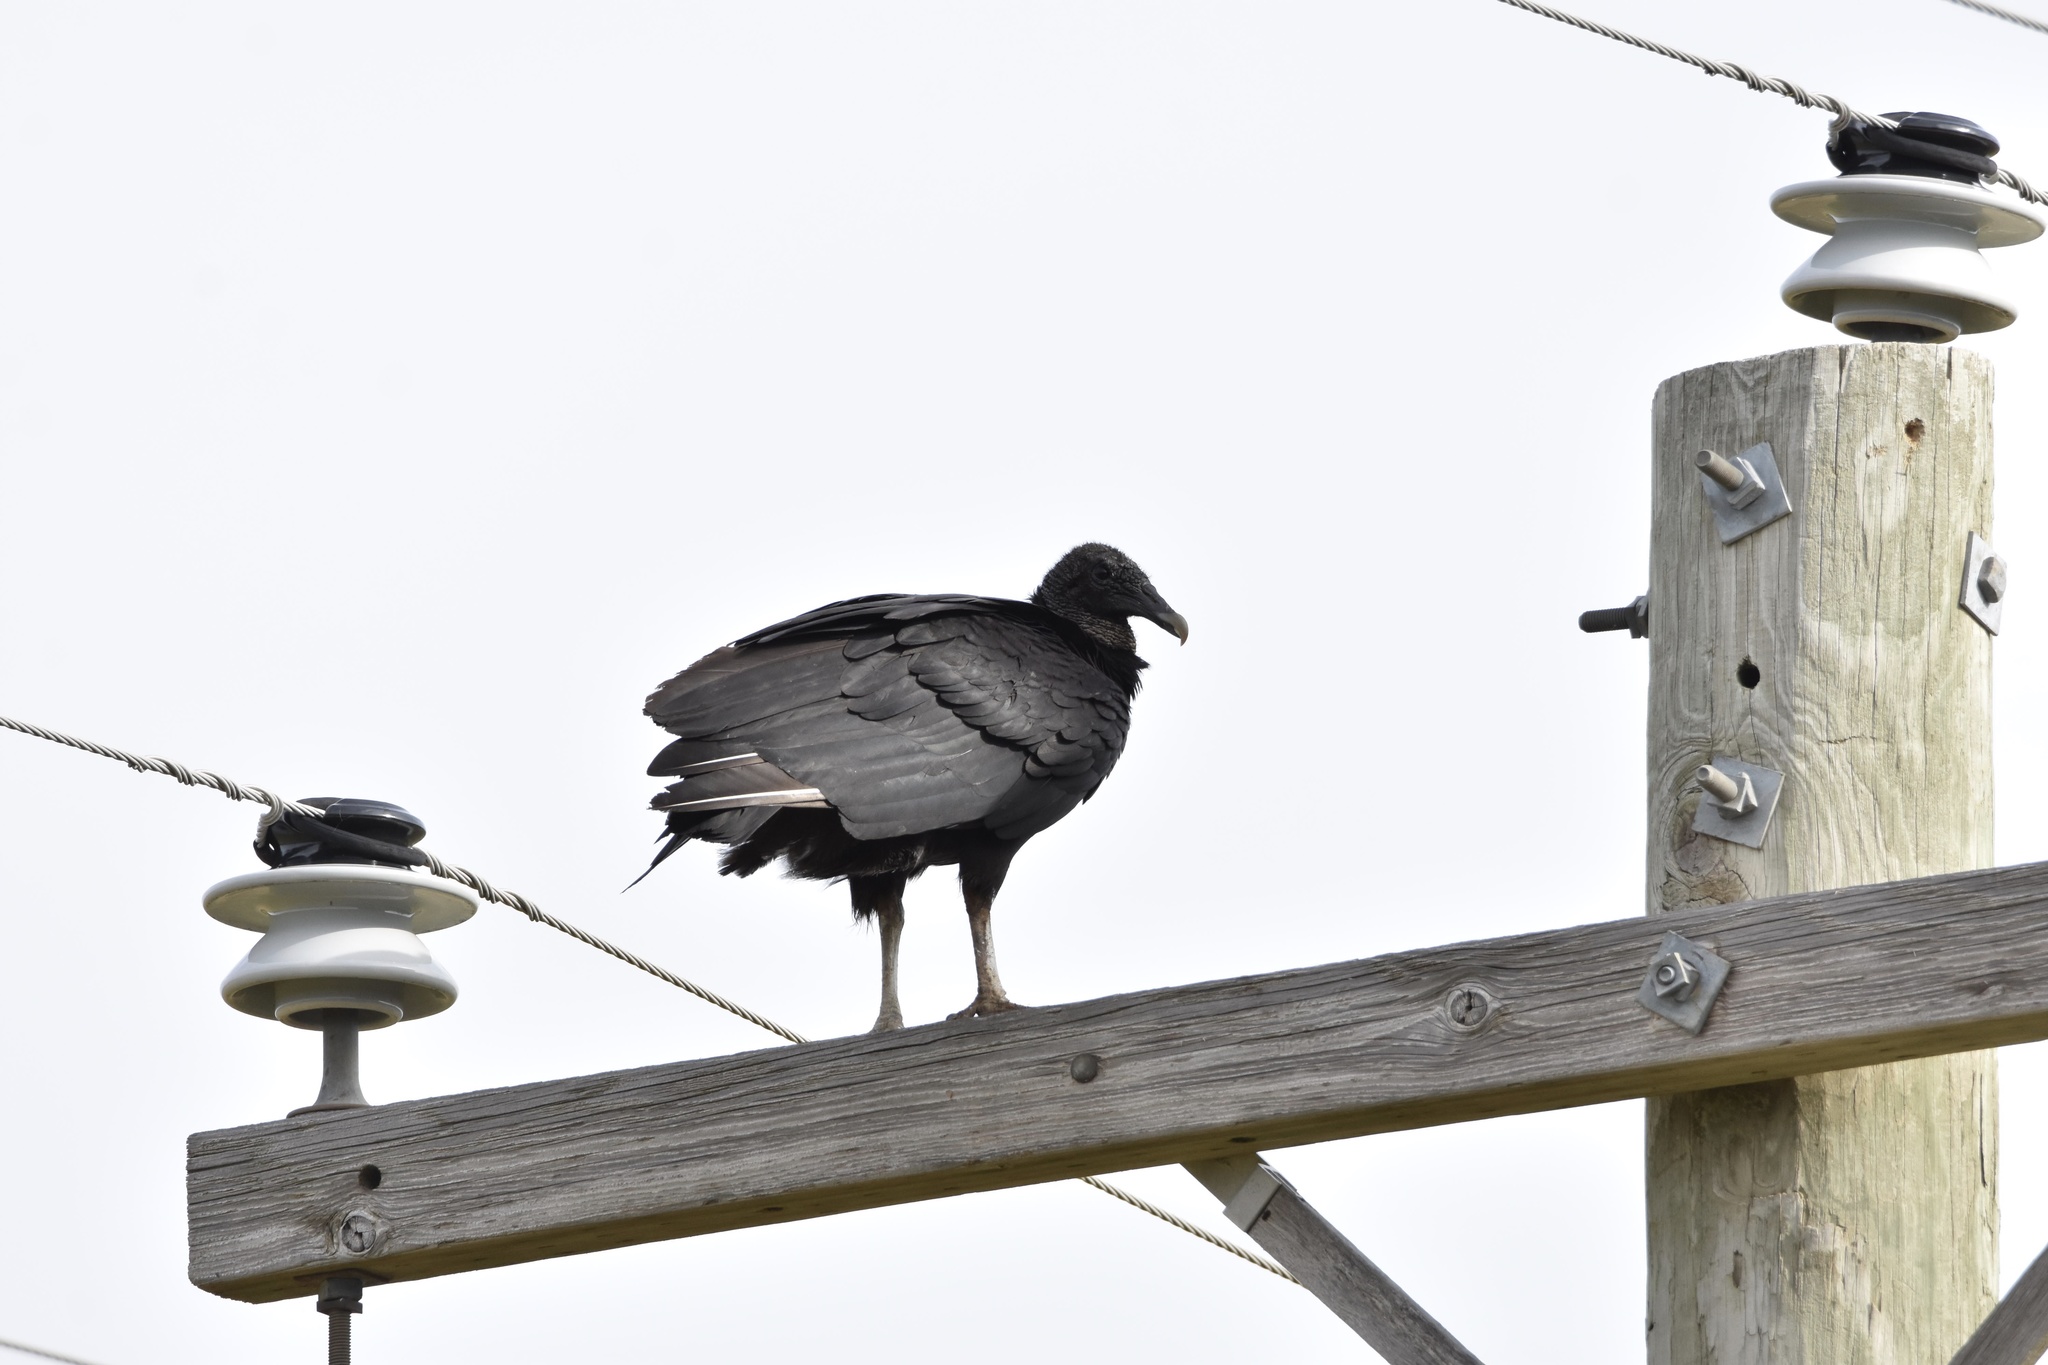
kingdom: Animalia
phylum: Chordata
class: Aves
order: Accipitriformes
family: Cathartidae
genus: Coragyps
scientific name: Coragyps atratus
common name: Black vulture
